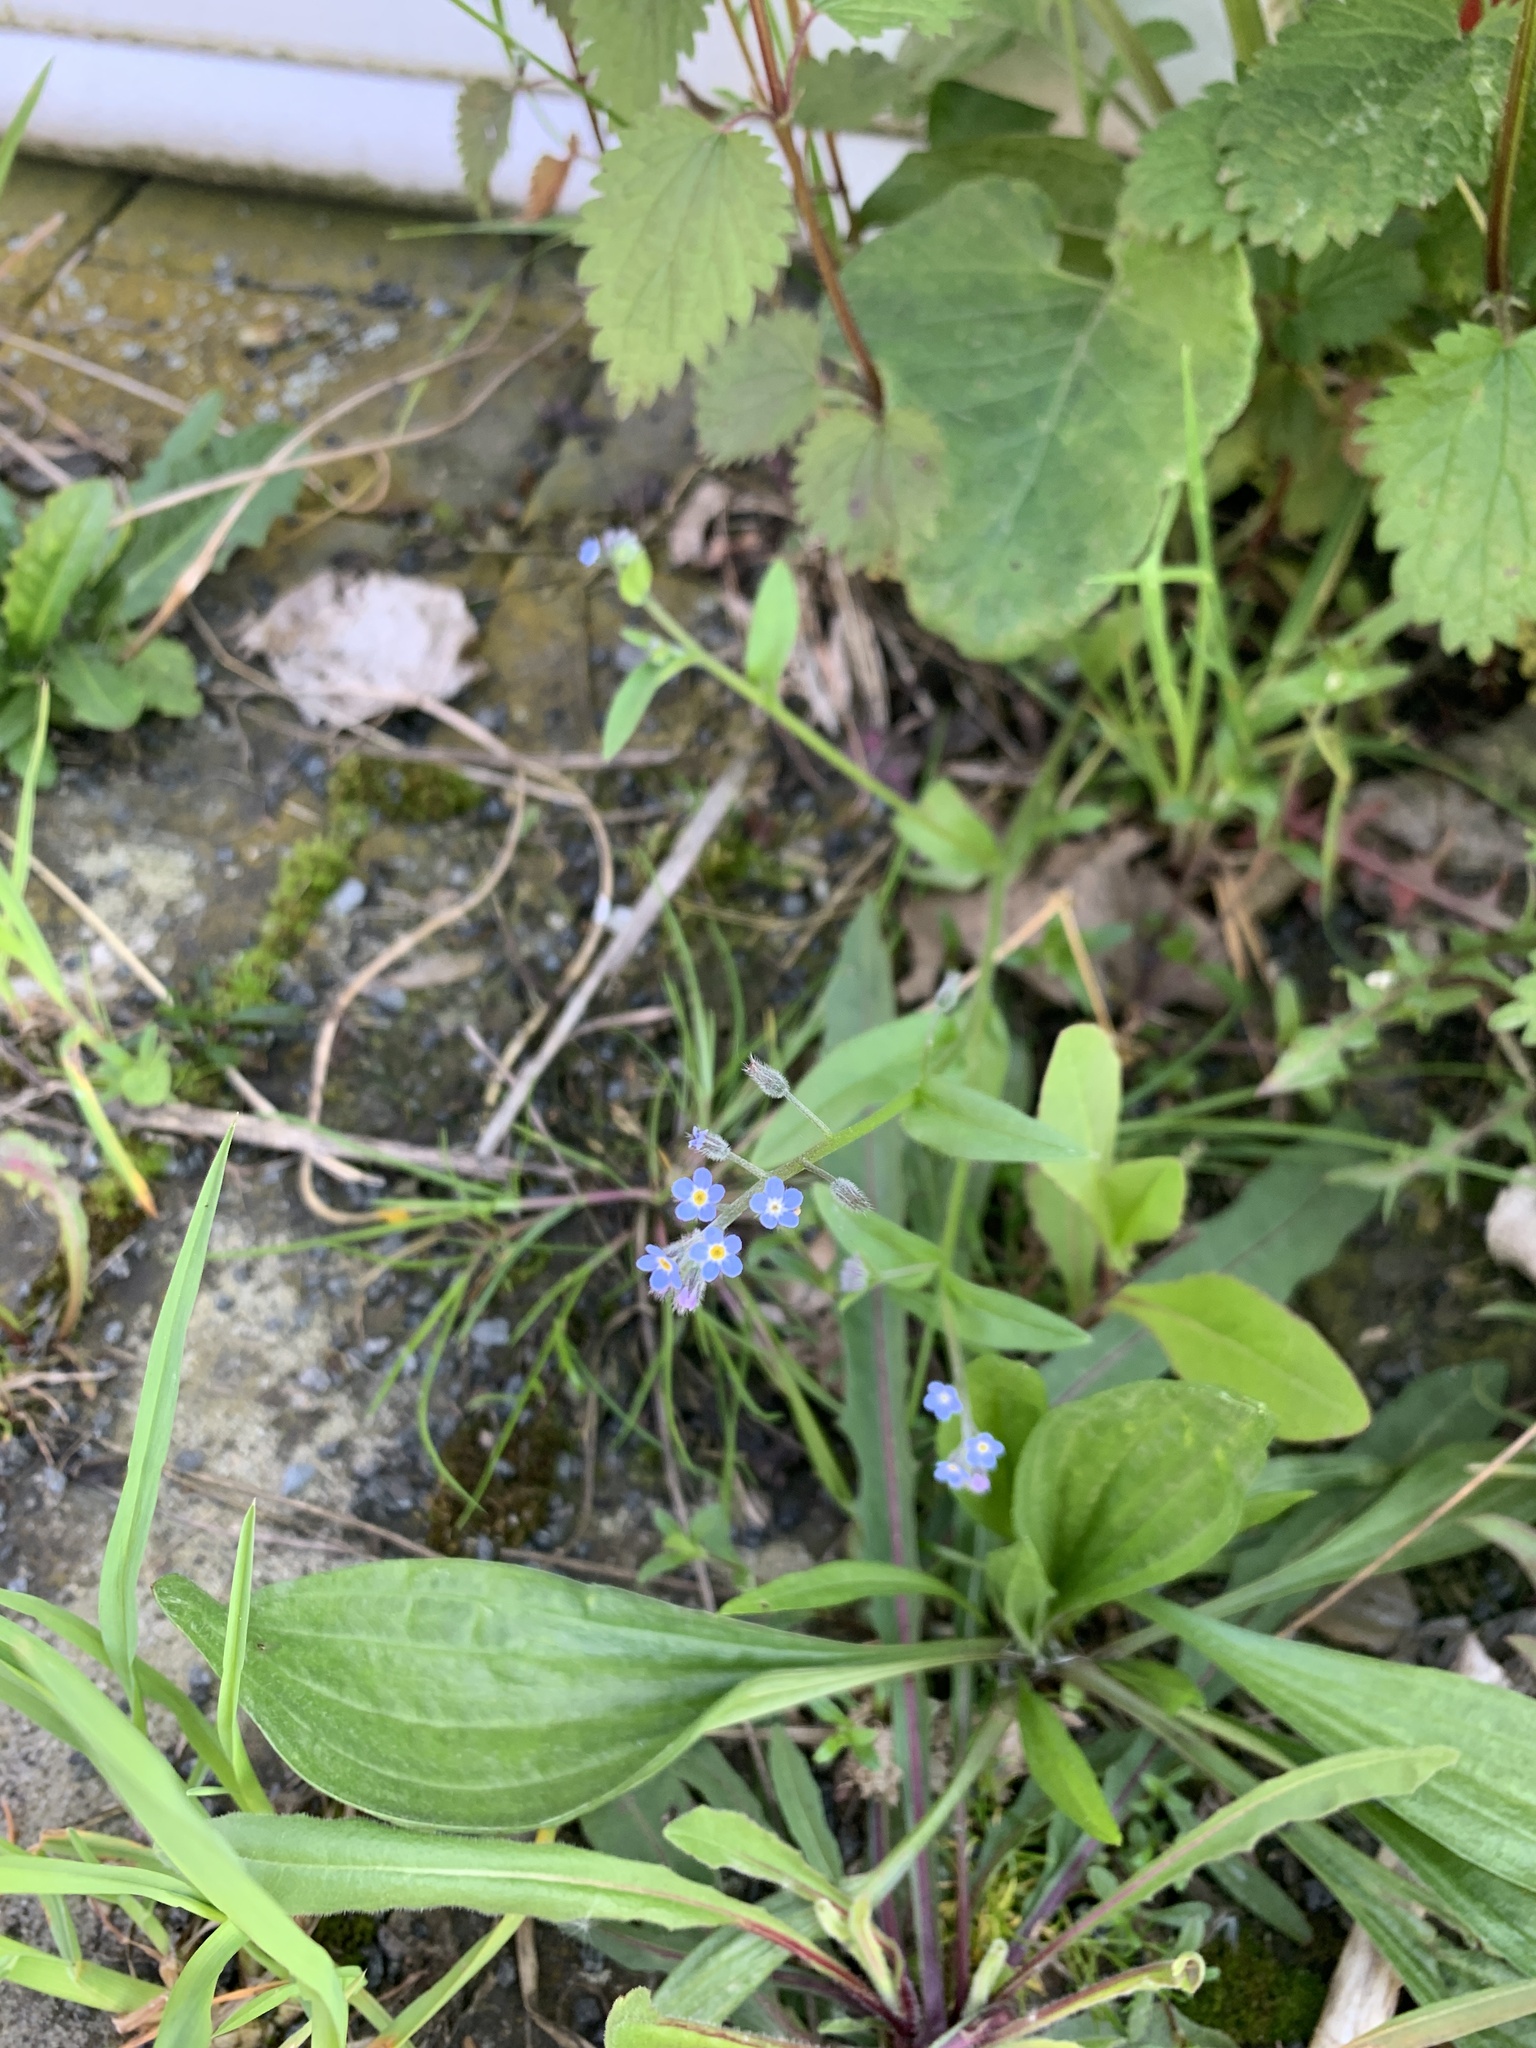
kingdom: Plantae
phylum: Tracheophyta
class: Magnoliopsida
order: Boraginales
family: Boraginaceae
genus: Myosotis
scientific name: Myosotis arvensis
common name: Field forget-me-not
